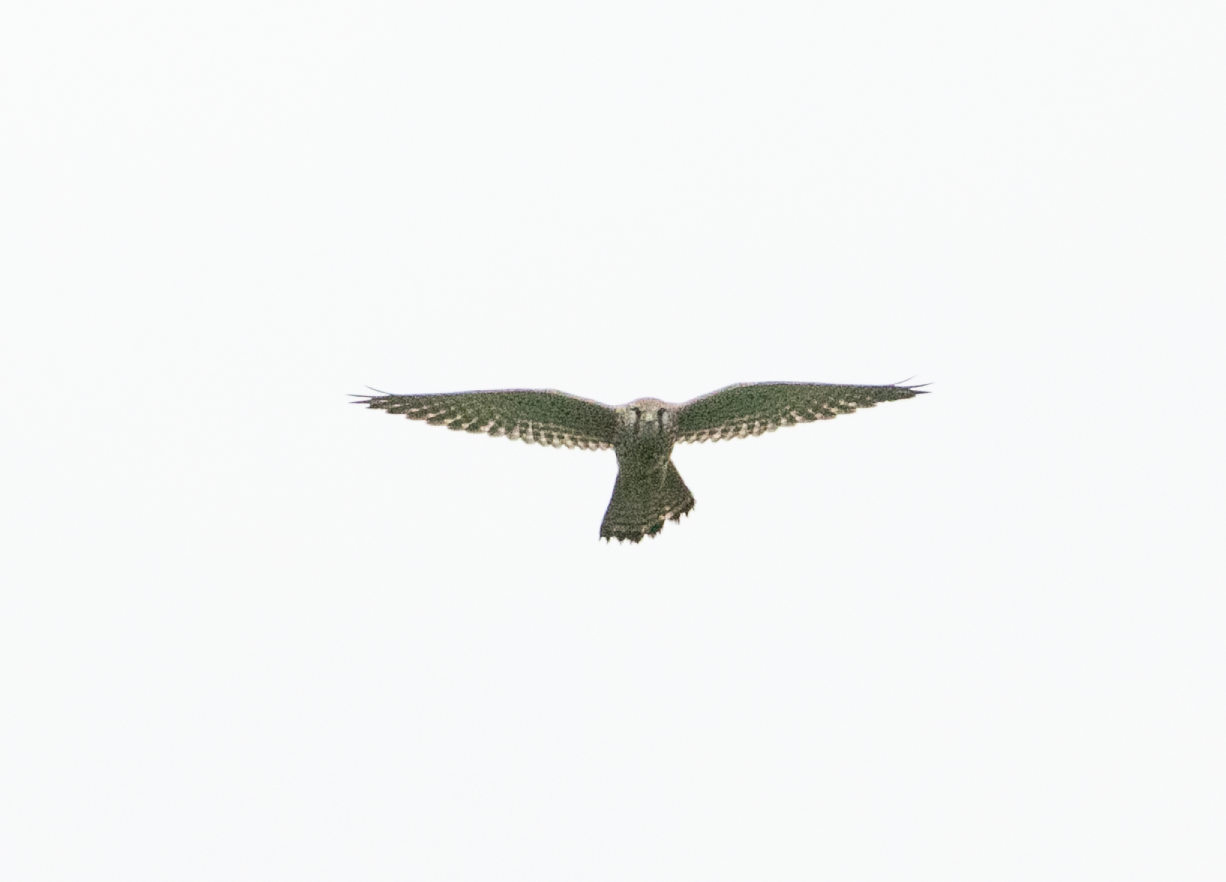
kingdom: Animalia
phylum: Chordata
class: Aves
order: Falconiformes
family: Falconidae
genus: Falco
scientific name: Falco tinnunculus
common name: Common kestrel
